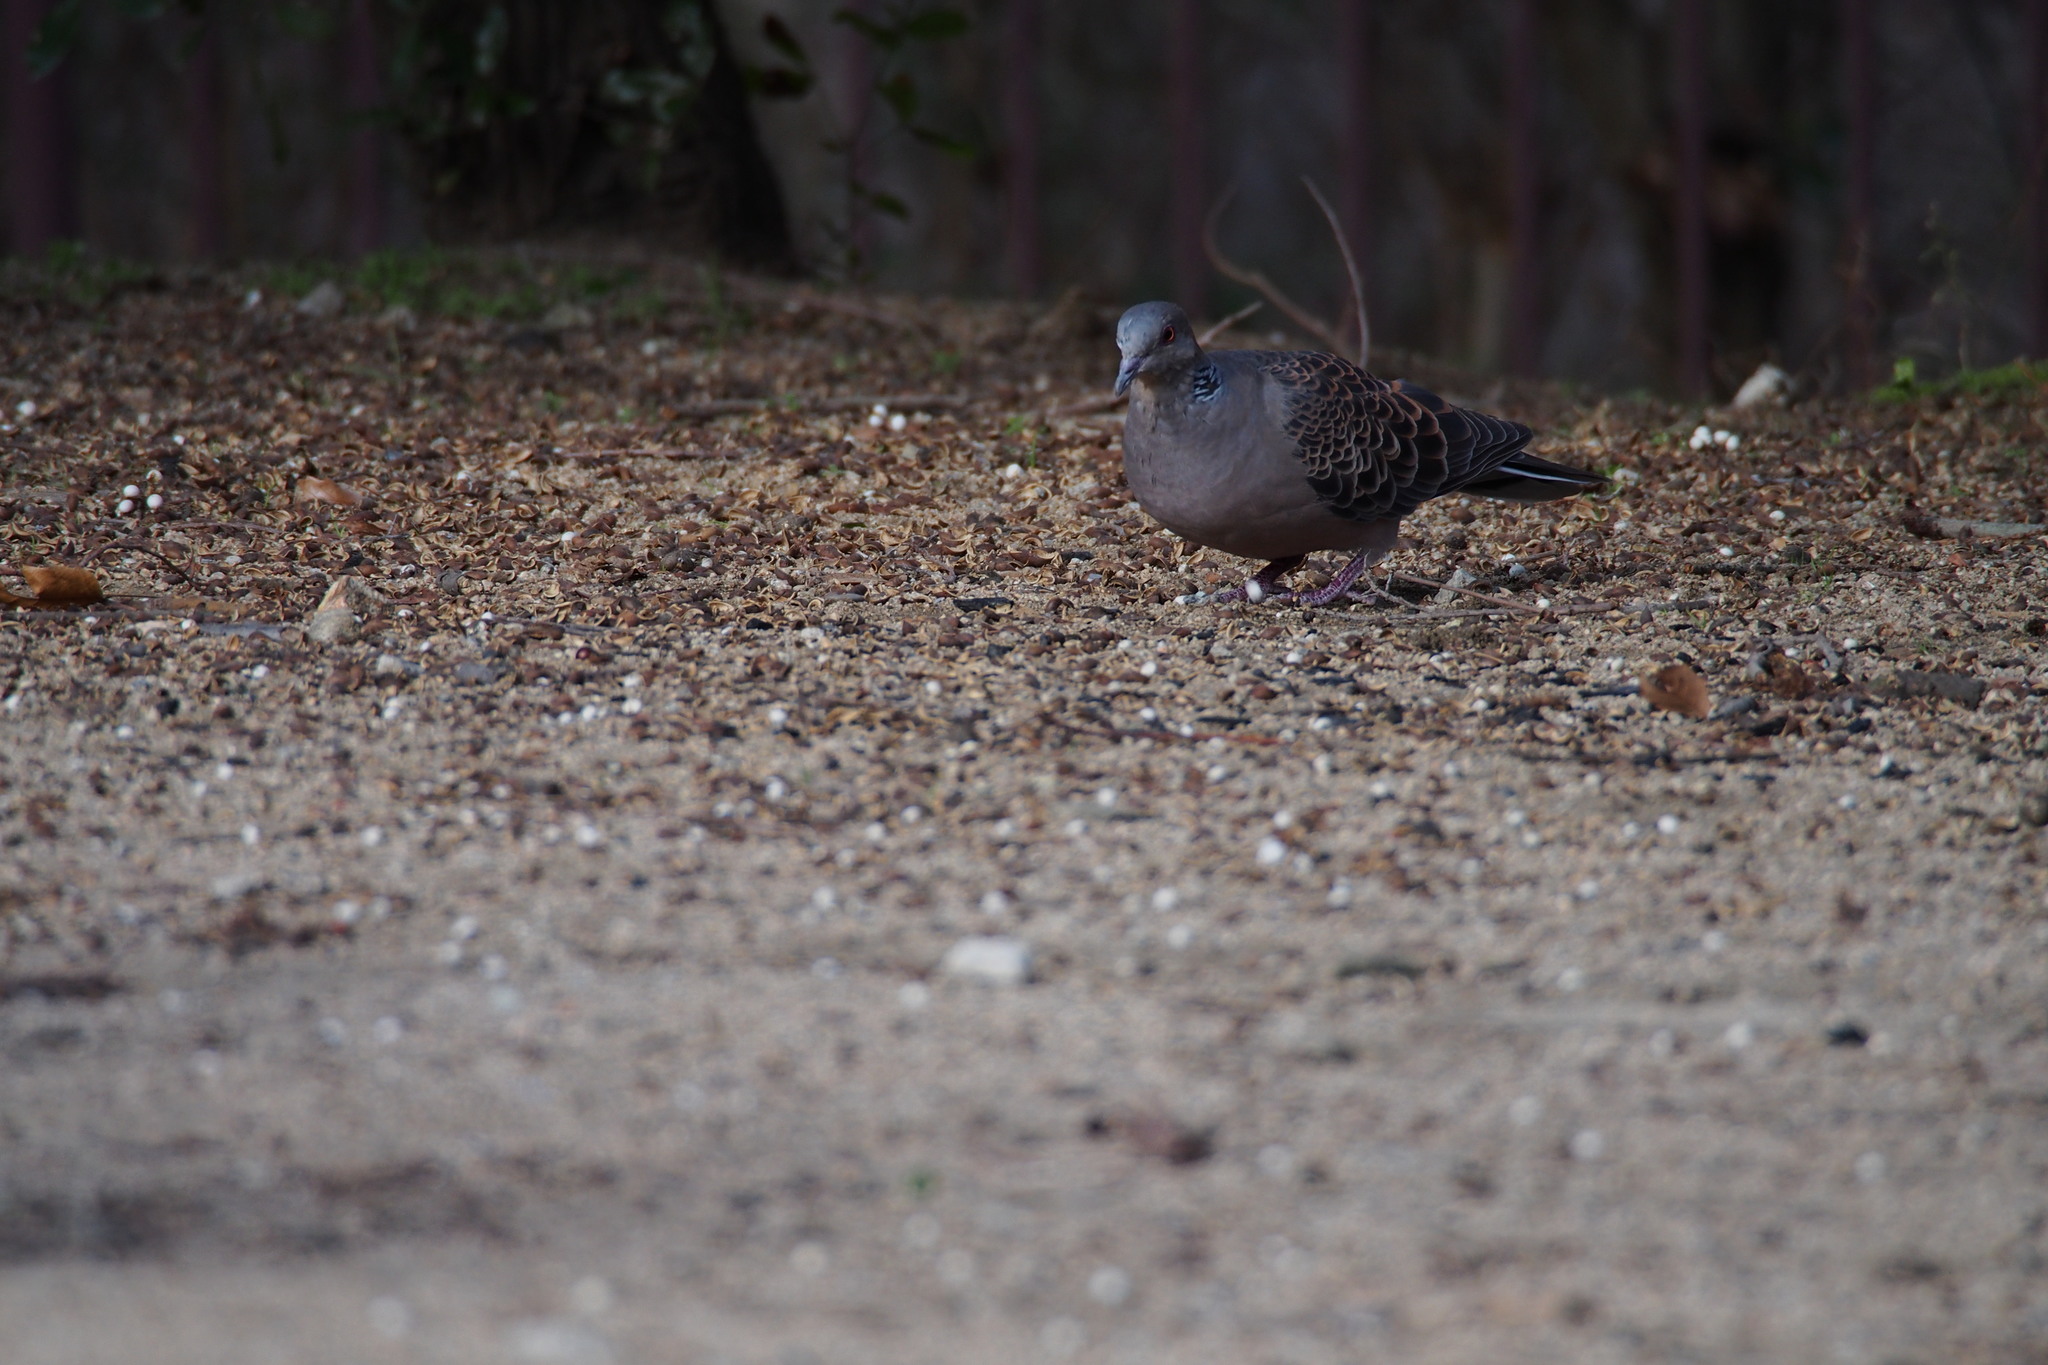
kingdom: Animalia
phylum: Chordata
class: Aves
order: Columbiformes
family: Columbidae
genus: Streptopelia
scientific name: Streptopelia orientalis
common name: Oriental turtle dove
